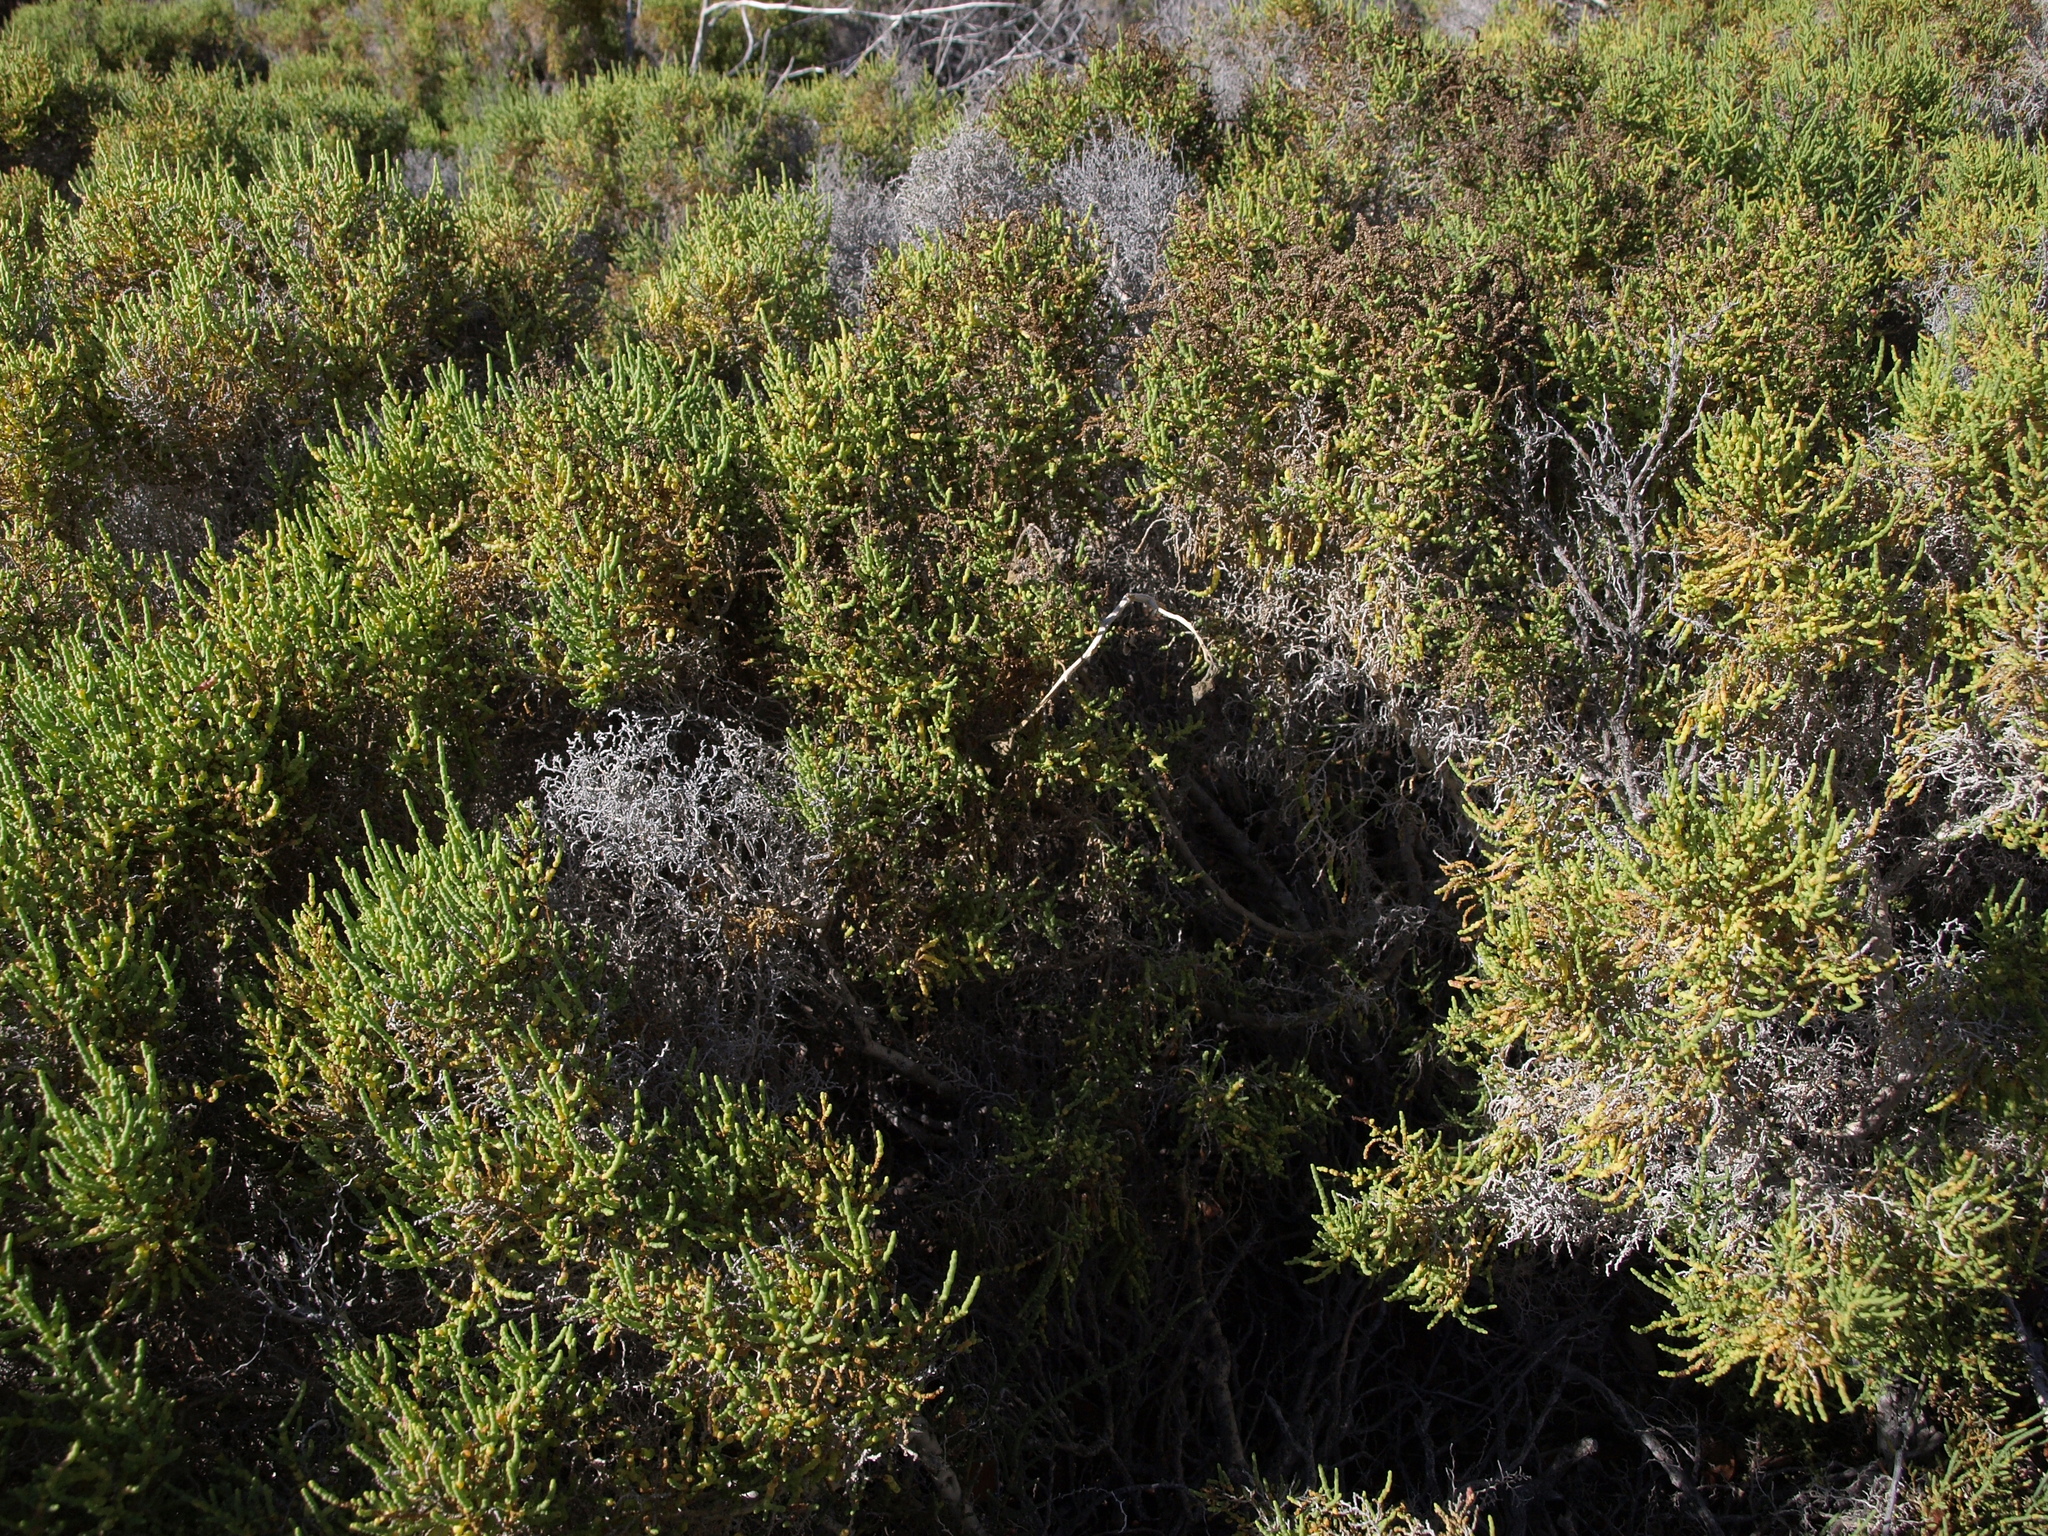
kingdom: Plantae
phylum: Tracheophyta
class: Magnoliopsida
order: Caryophyllales
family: Amaranthaceae
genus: Allenrolfea
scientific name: Allenrolfea occidentalis
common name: Iodine-bush
